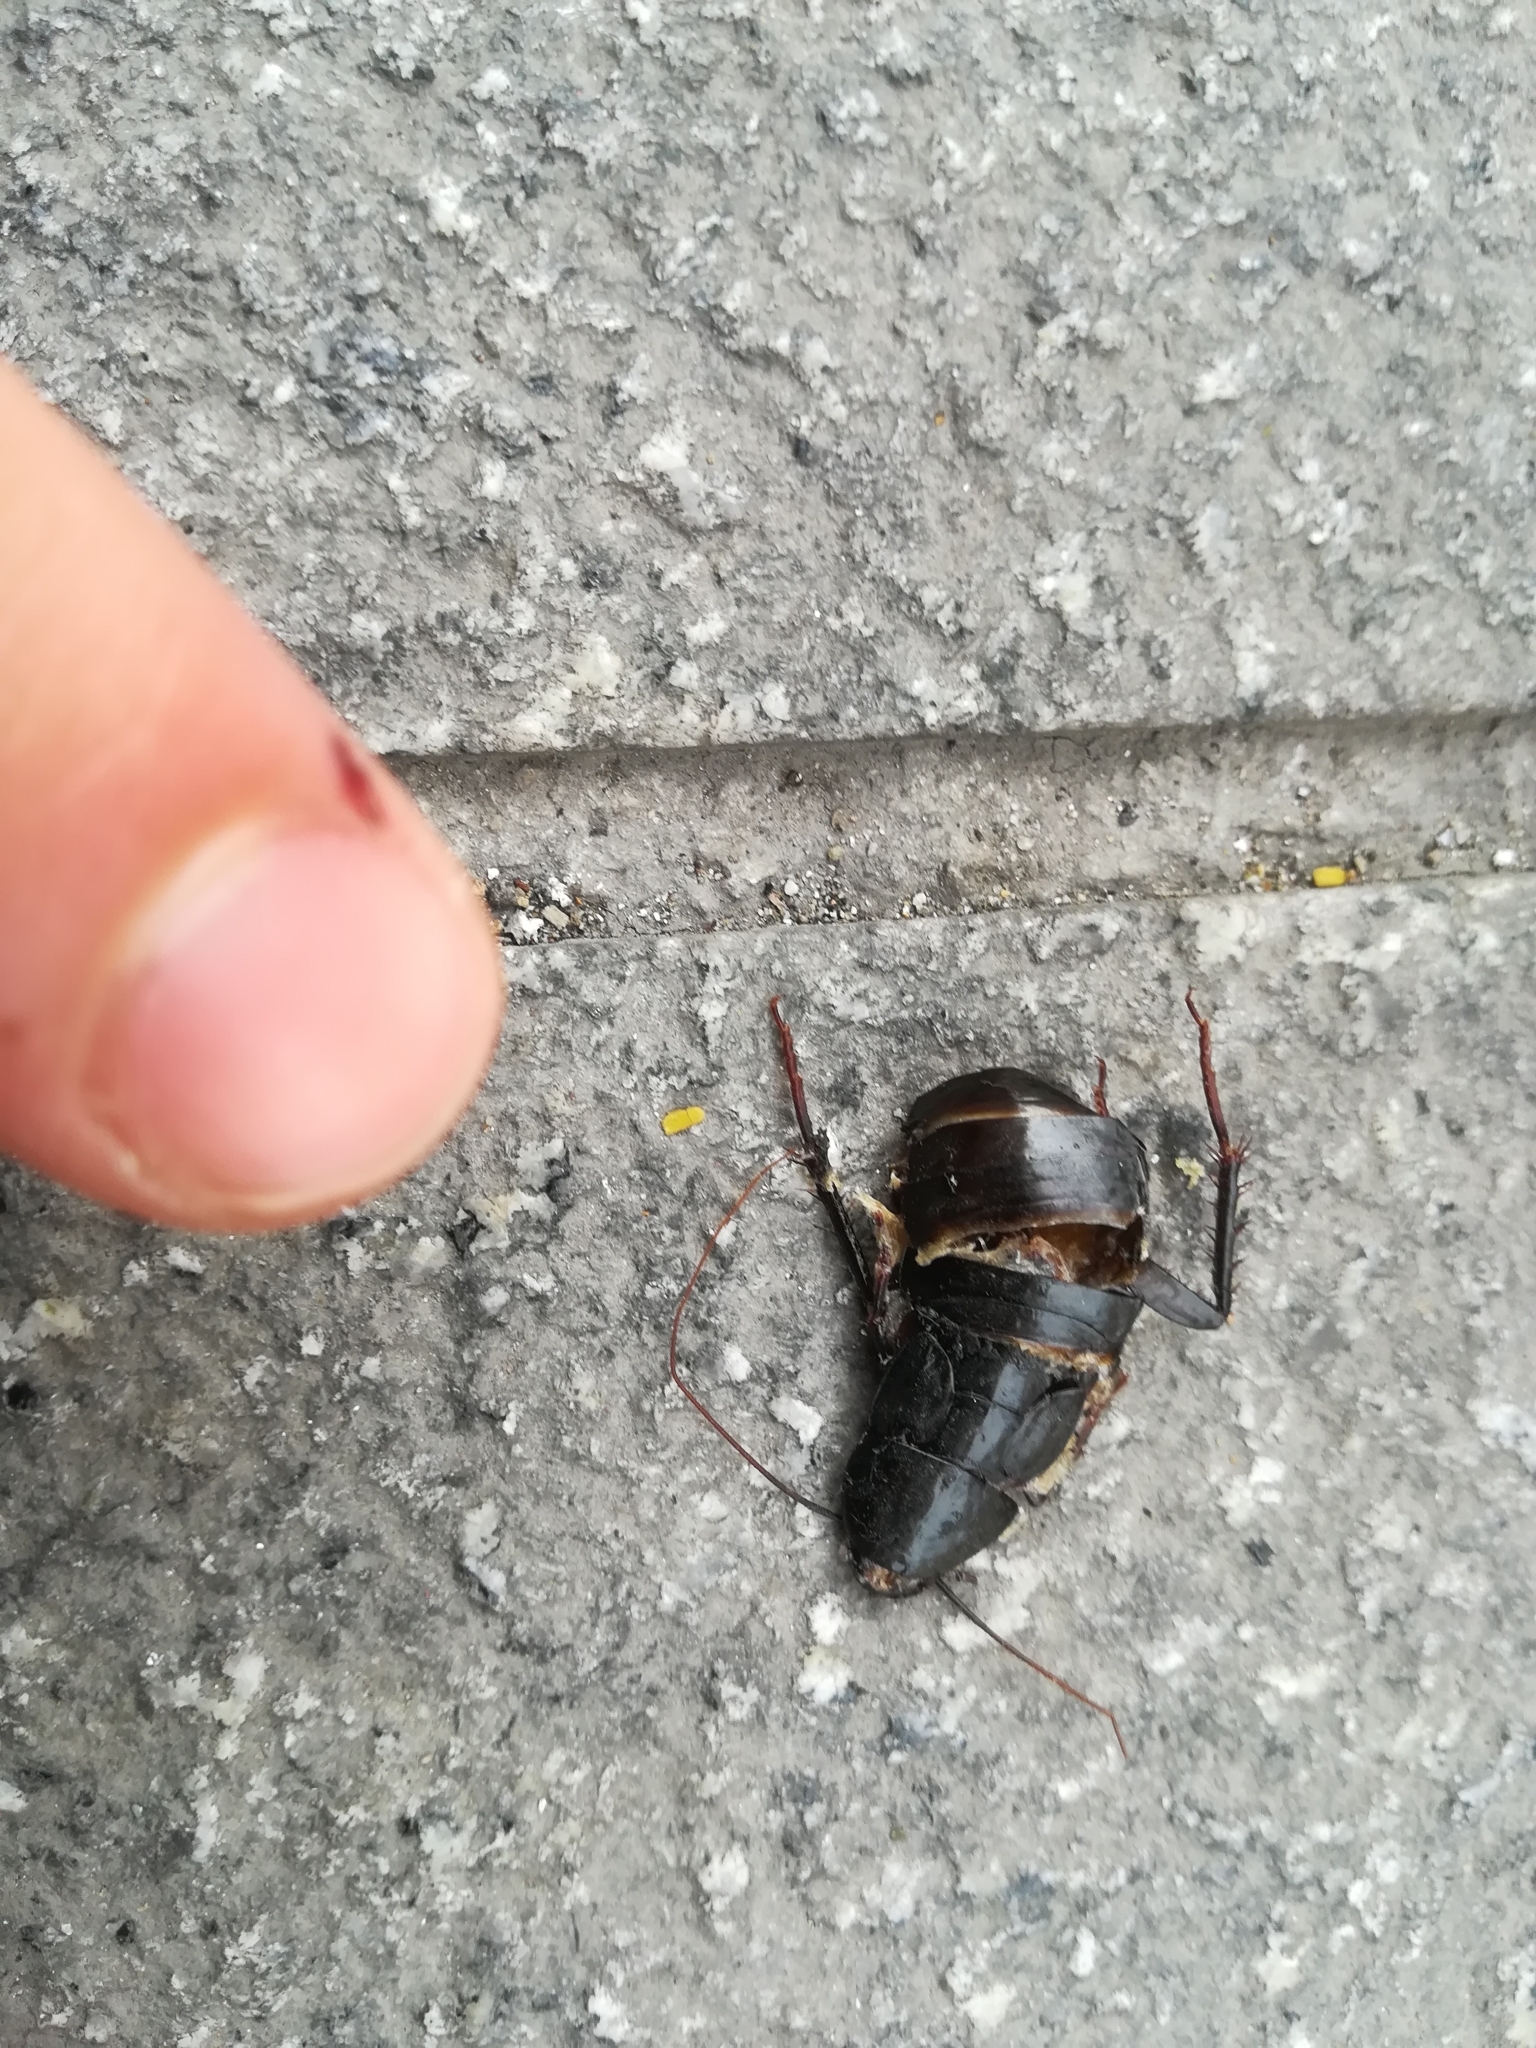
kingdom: Animalia
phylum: Arthropoda
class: Insecta
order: Blattodea
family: Blattidae
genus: Blatta
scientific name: Blatta orientalis
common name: Oriental cockroach
